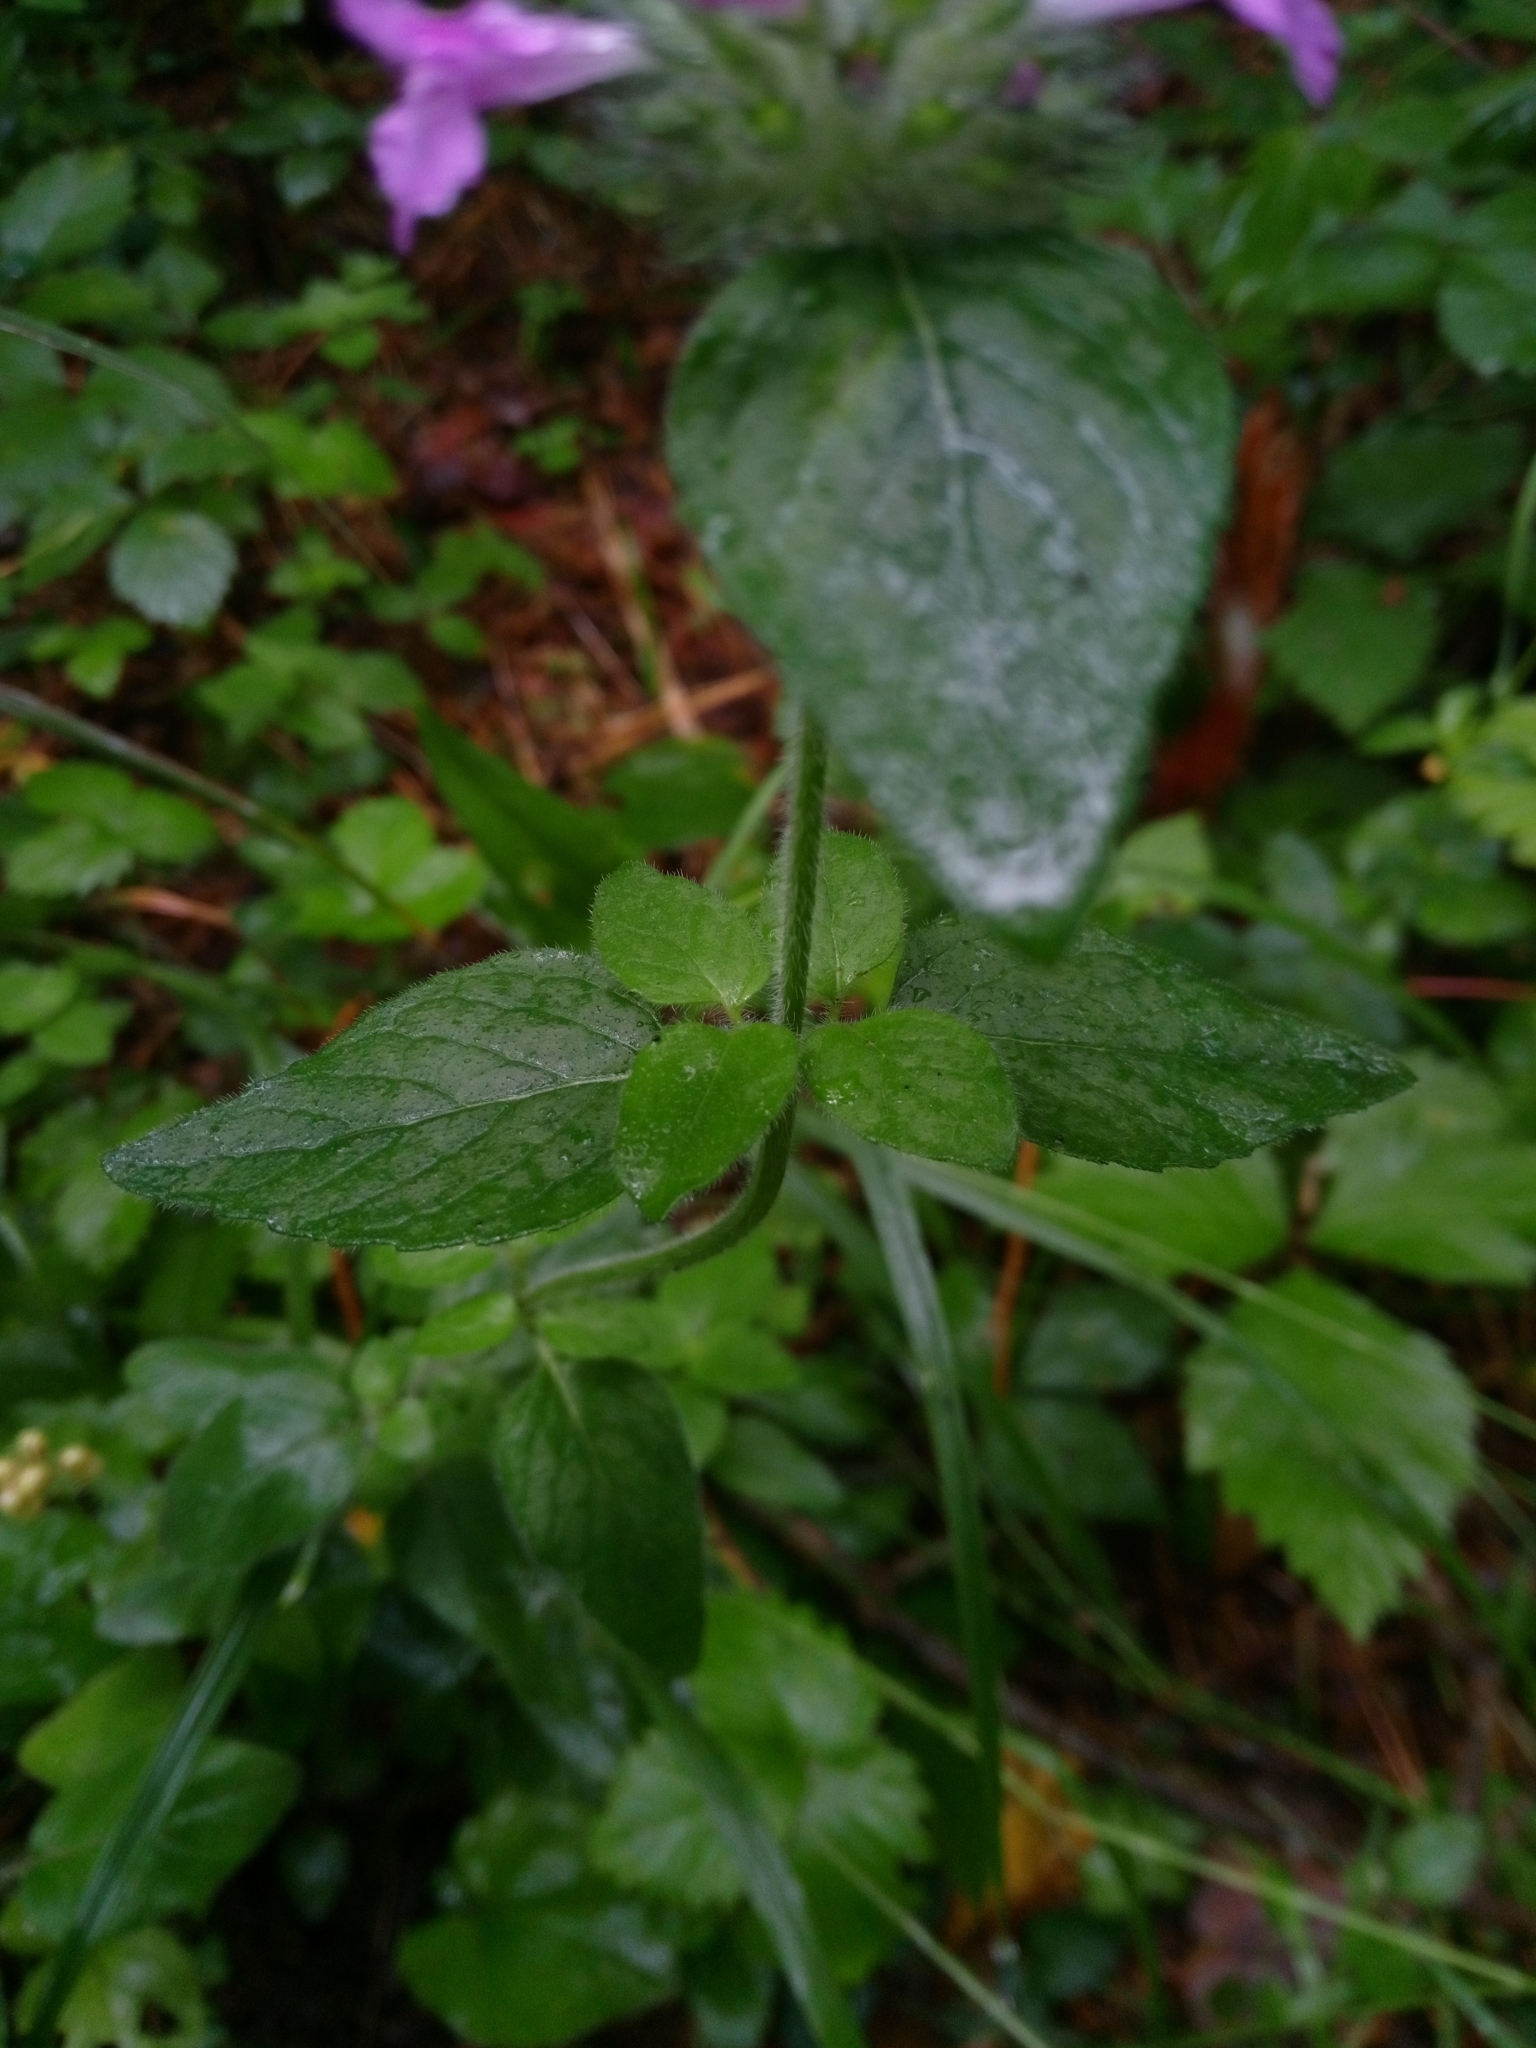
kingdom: Plantae
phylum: Tracheophyta
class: Magnoliopsida
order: Lamiales
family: Lamiaceae
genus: Clinopodium
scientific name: Clinopodium vulgare
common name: Wild basil
